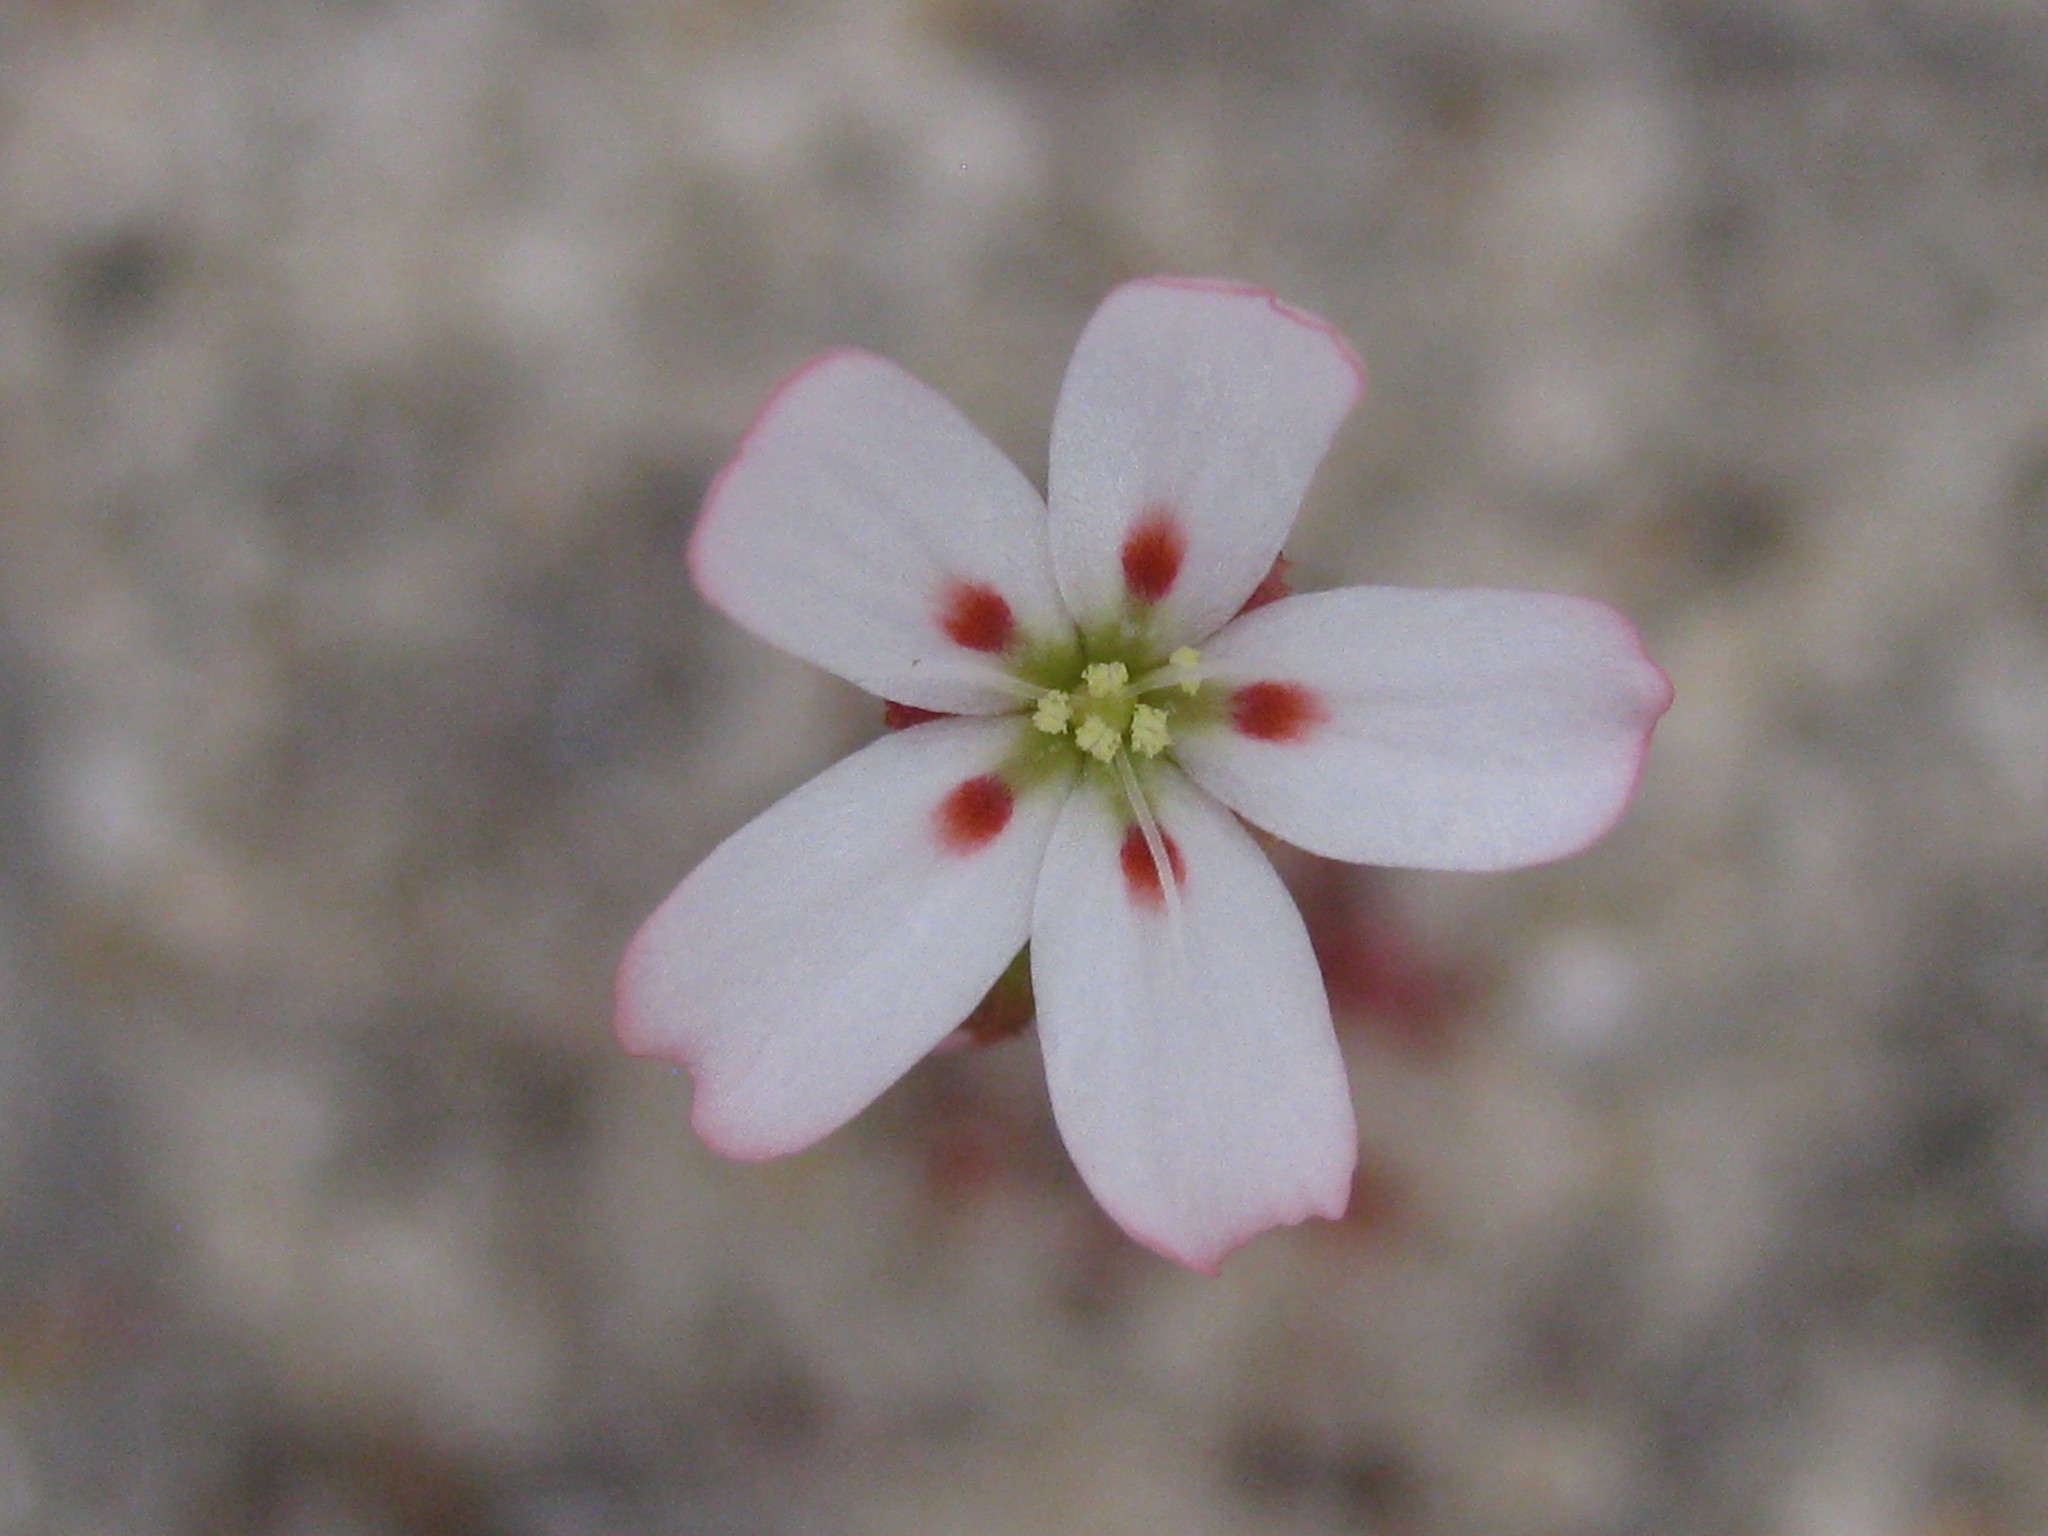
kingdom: Plantae
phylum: Tracheophyta
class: Magnoliopsida
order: Caryophyllales
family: Droseraceae
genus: Drosera
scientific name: Drosera eneabba
